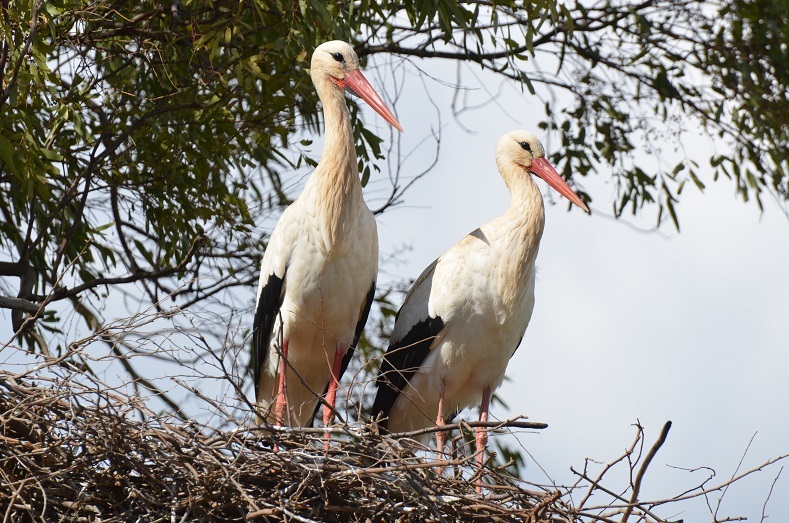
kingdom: Animalia
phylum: Chordata
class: Aves
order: Ciconiiformes
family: Ciconiidae
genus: Ciconia
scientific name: Ciconia ciconia
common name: White stork
